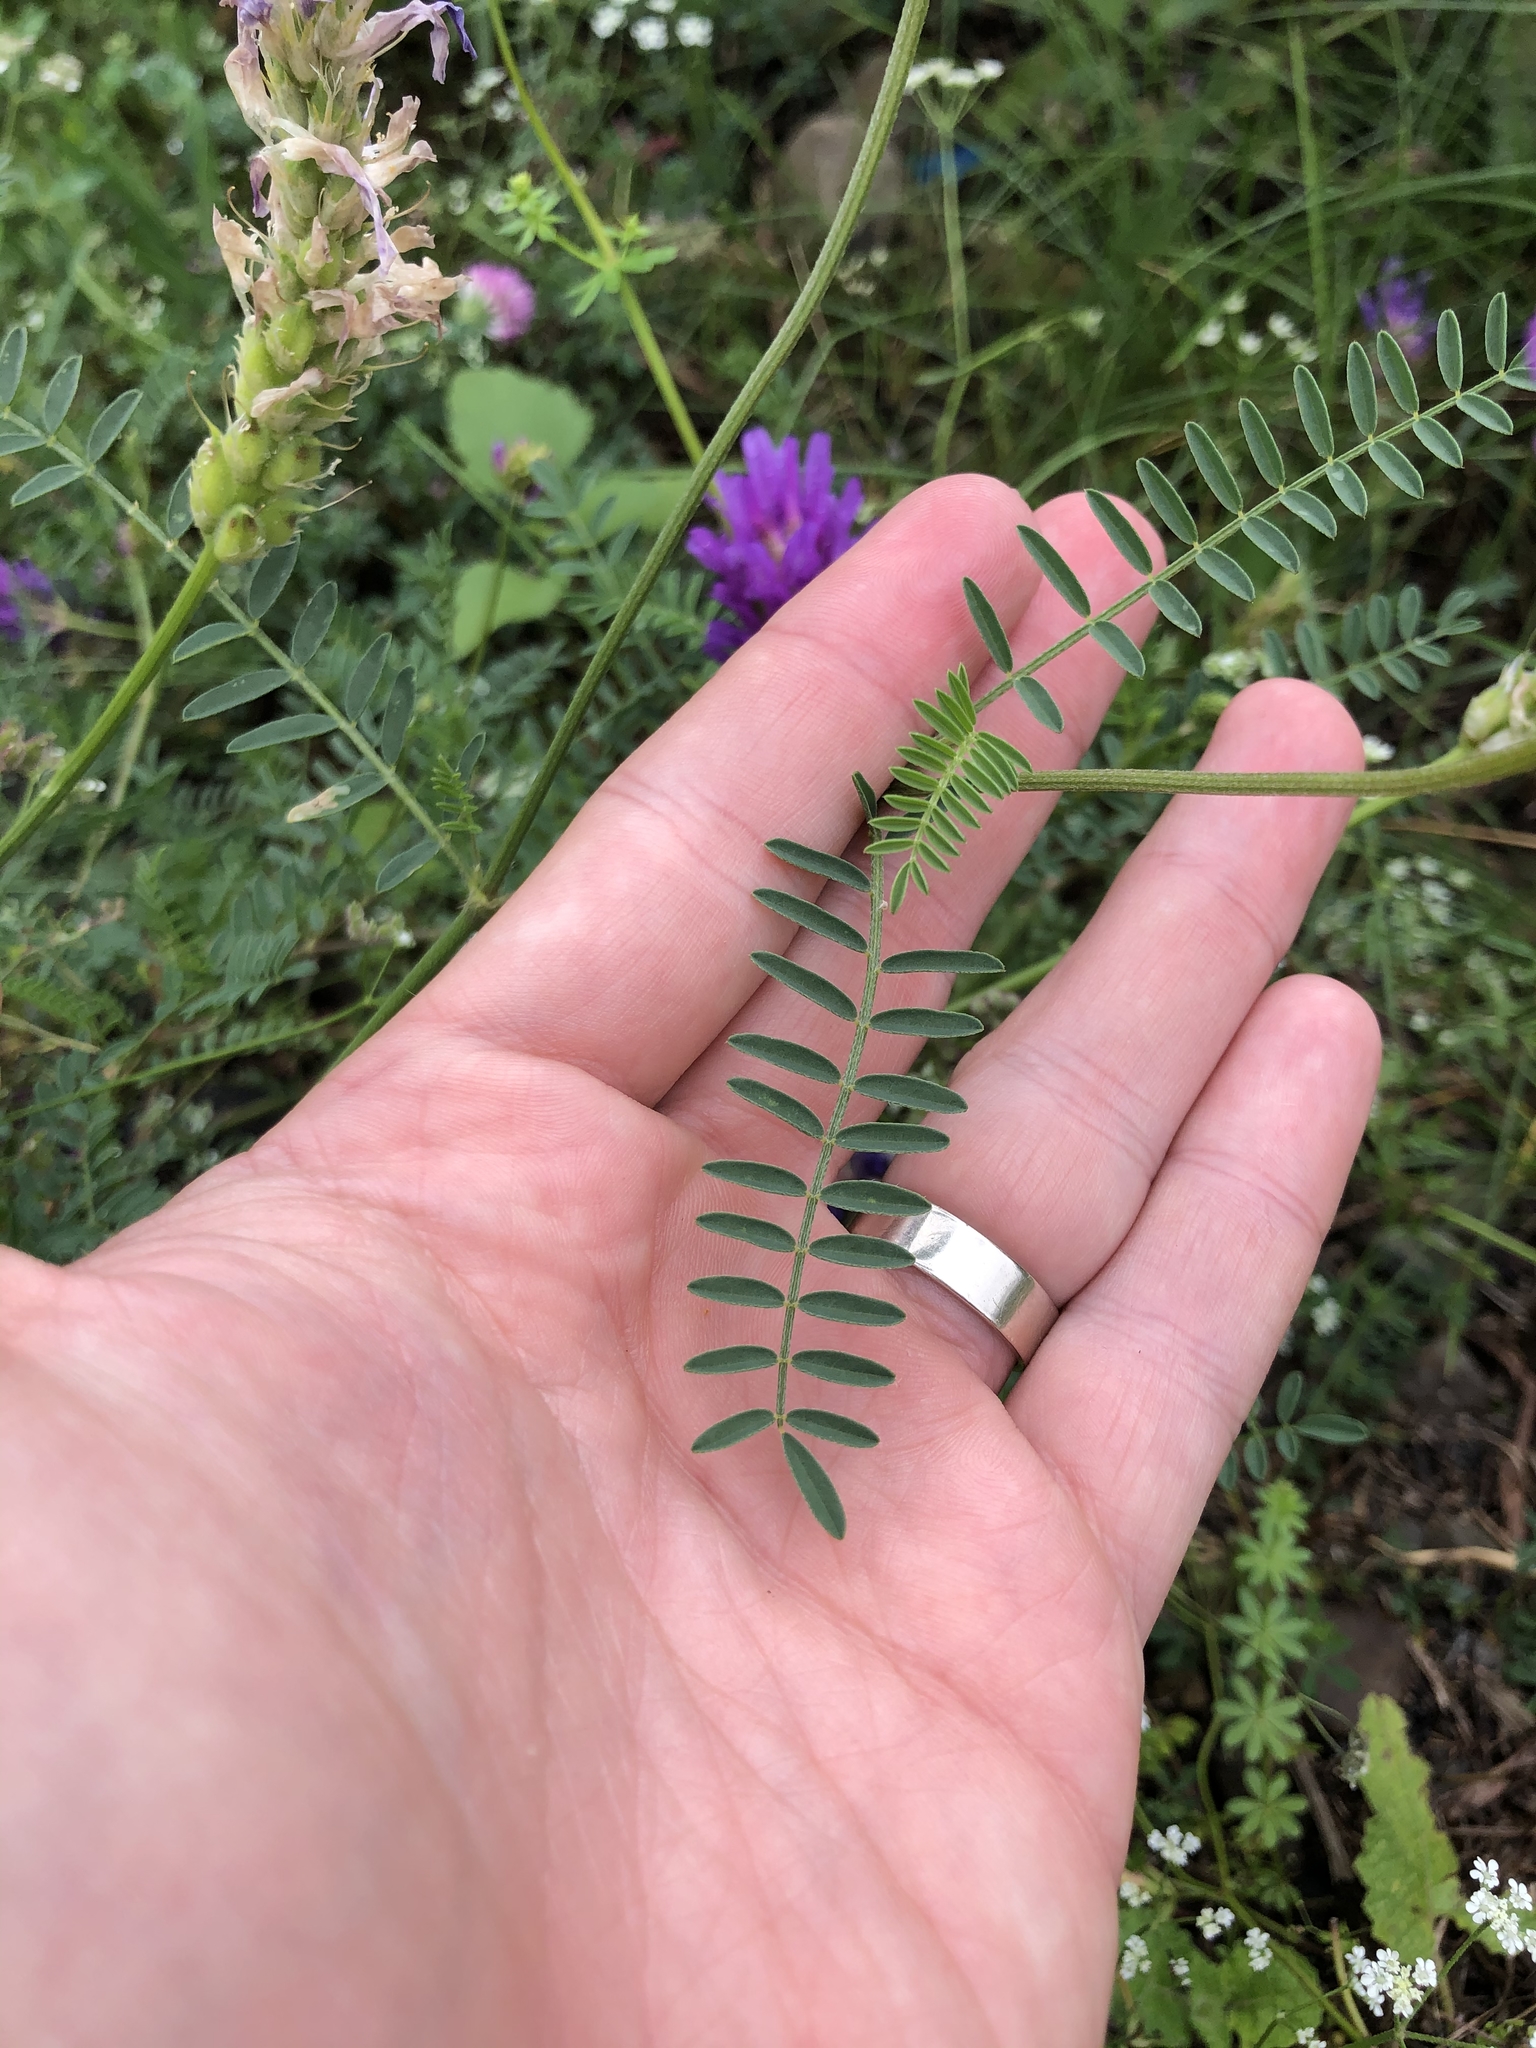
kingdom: Plantae
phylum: Tracheophyta
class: Magnoliopsida
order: Fabales
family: Fabaceae
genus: Astragalus
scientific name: Astragalus onobrychis
